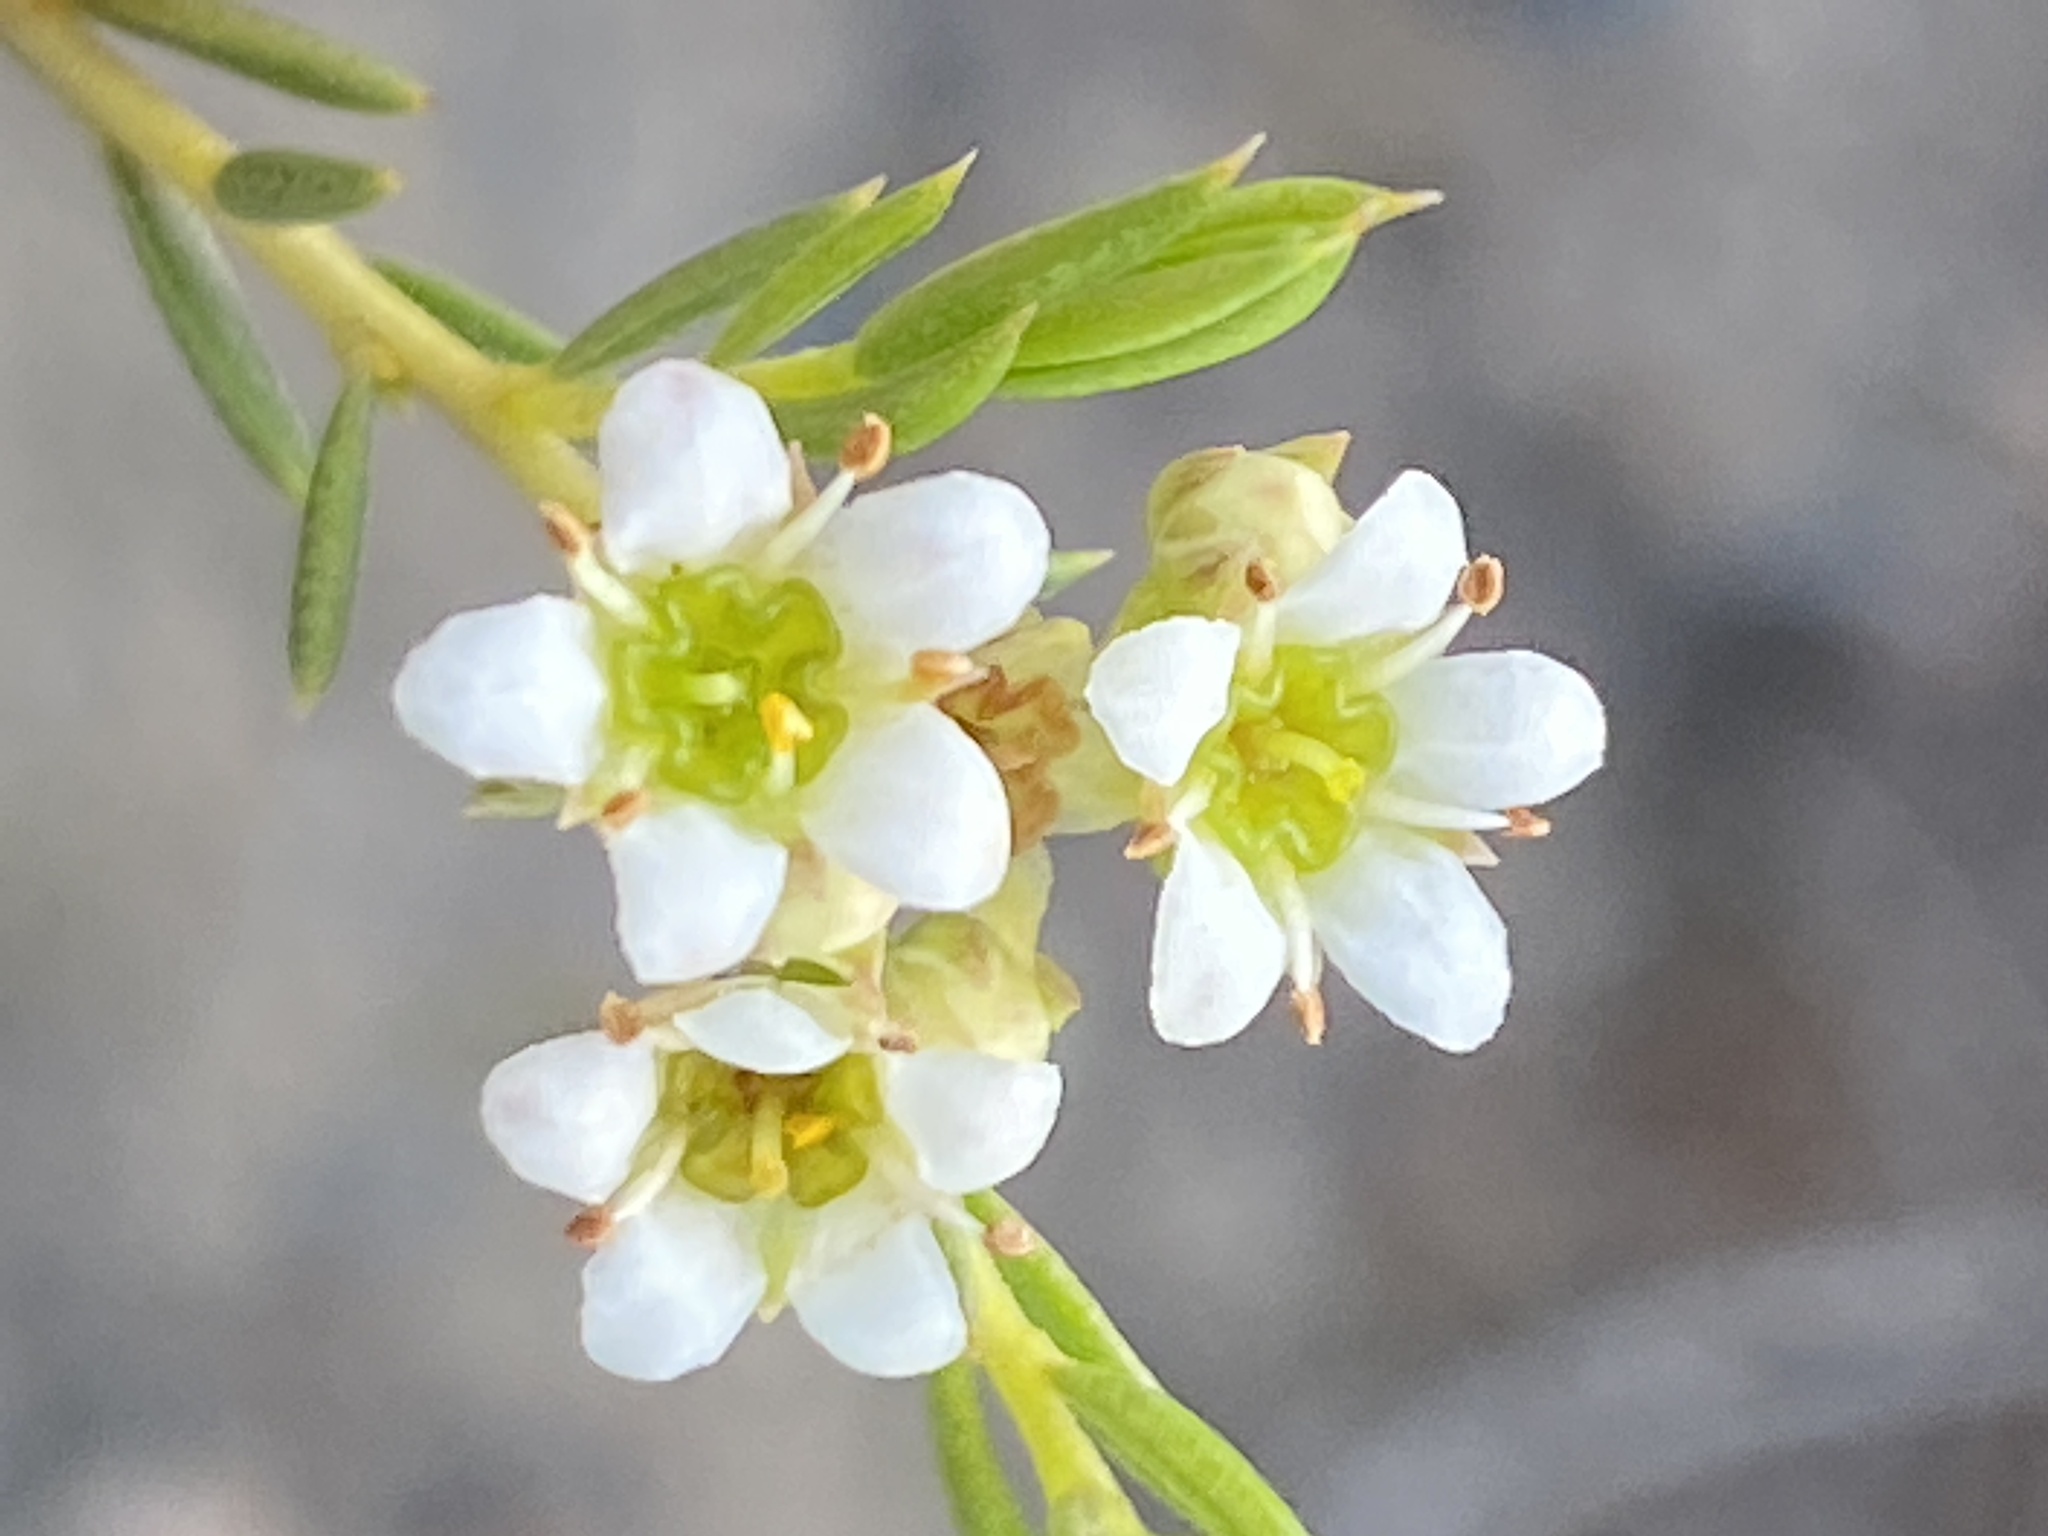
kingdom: Plantae
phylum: Tracheophyta
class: Magnoliopsida
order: Sapindales
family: Rutaceae
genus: Diosma
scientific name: Diosma hirsuta
